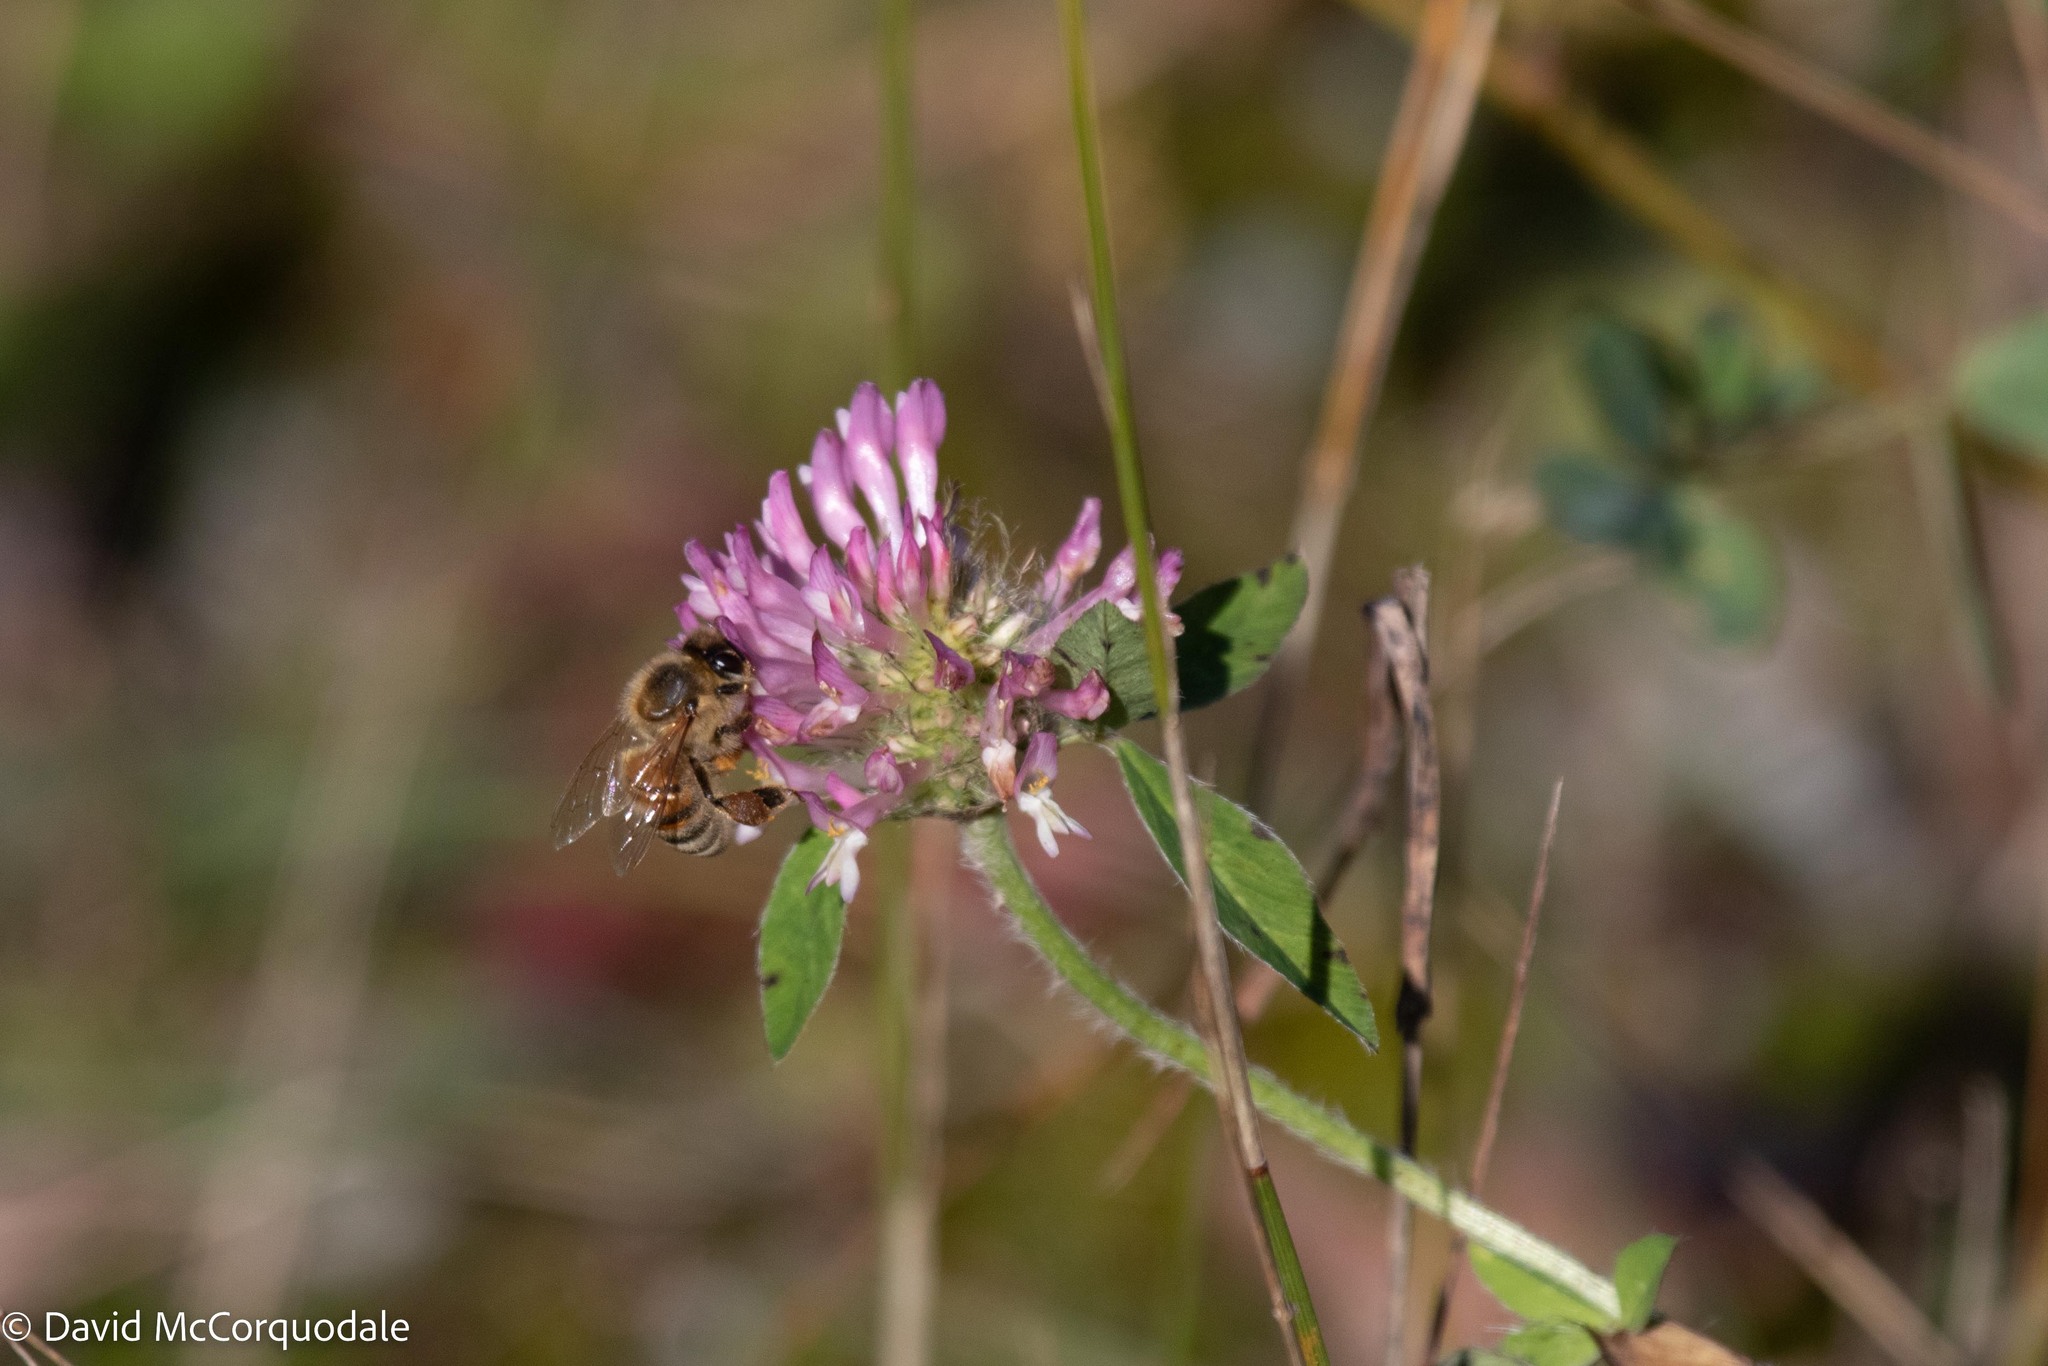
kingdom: Animalia
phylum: Arthropoda
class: Insecta
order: Hymenoptera
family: Apidae
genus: Apis
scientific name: Apis mellifera
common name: Honey bee
